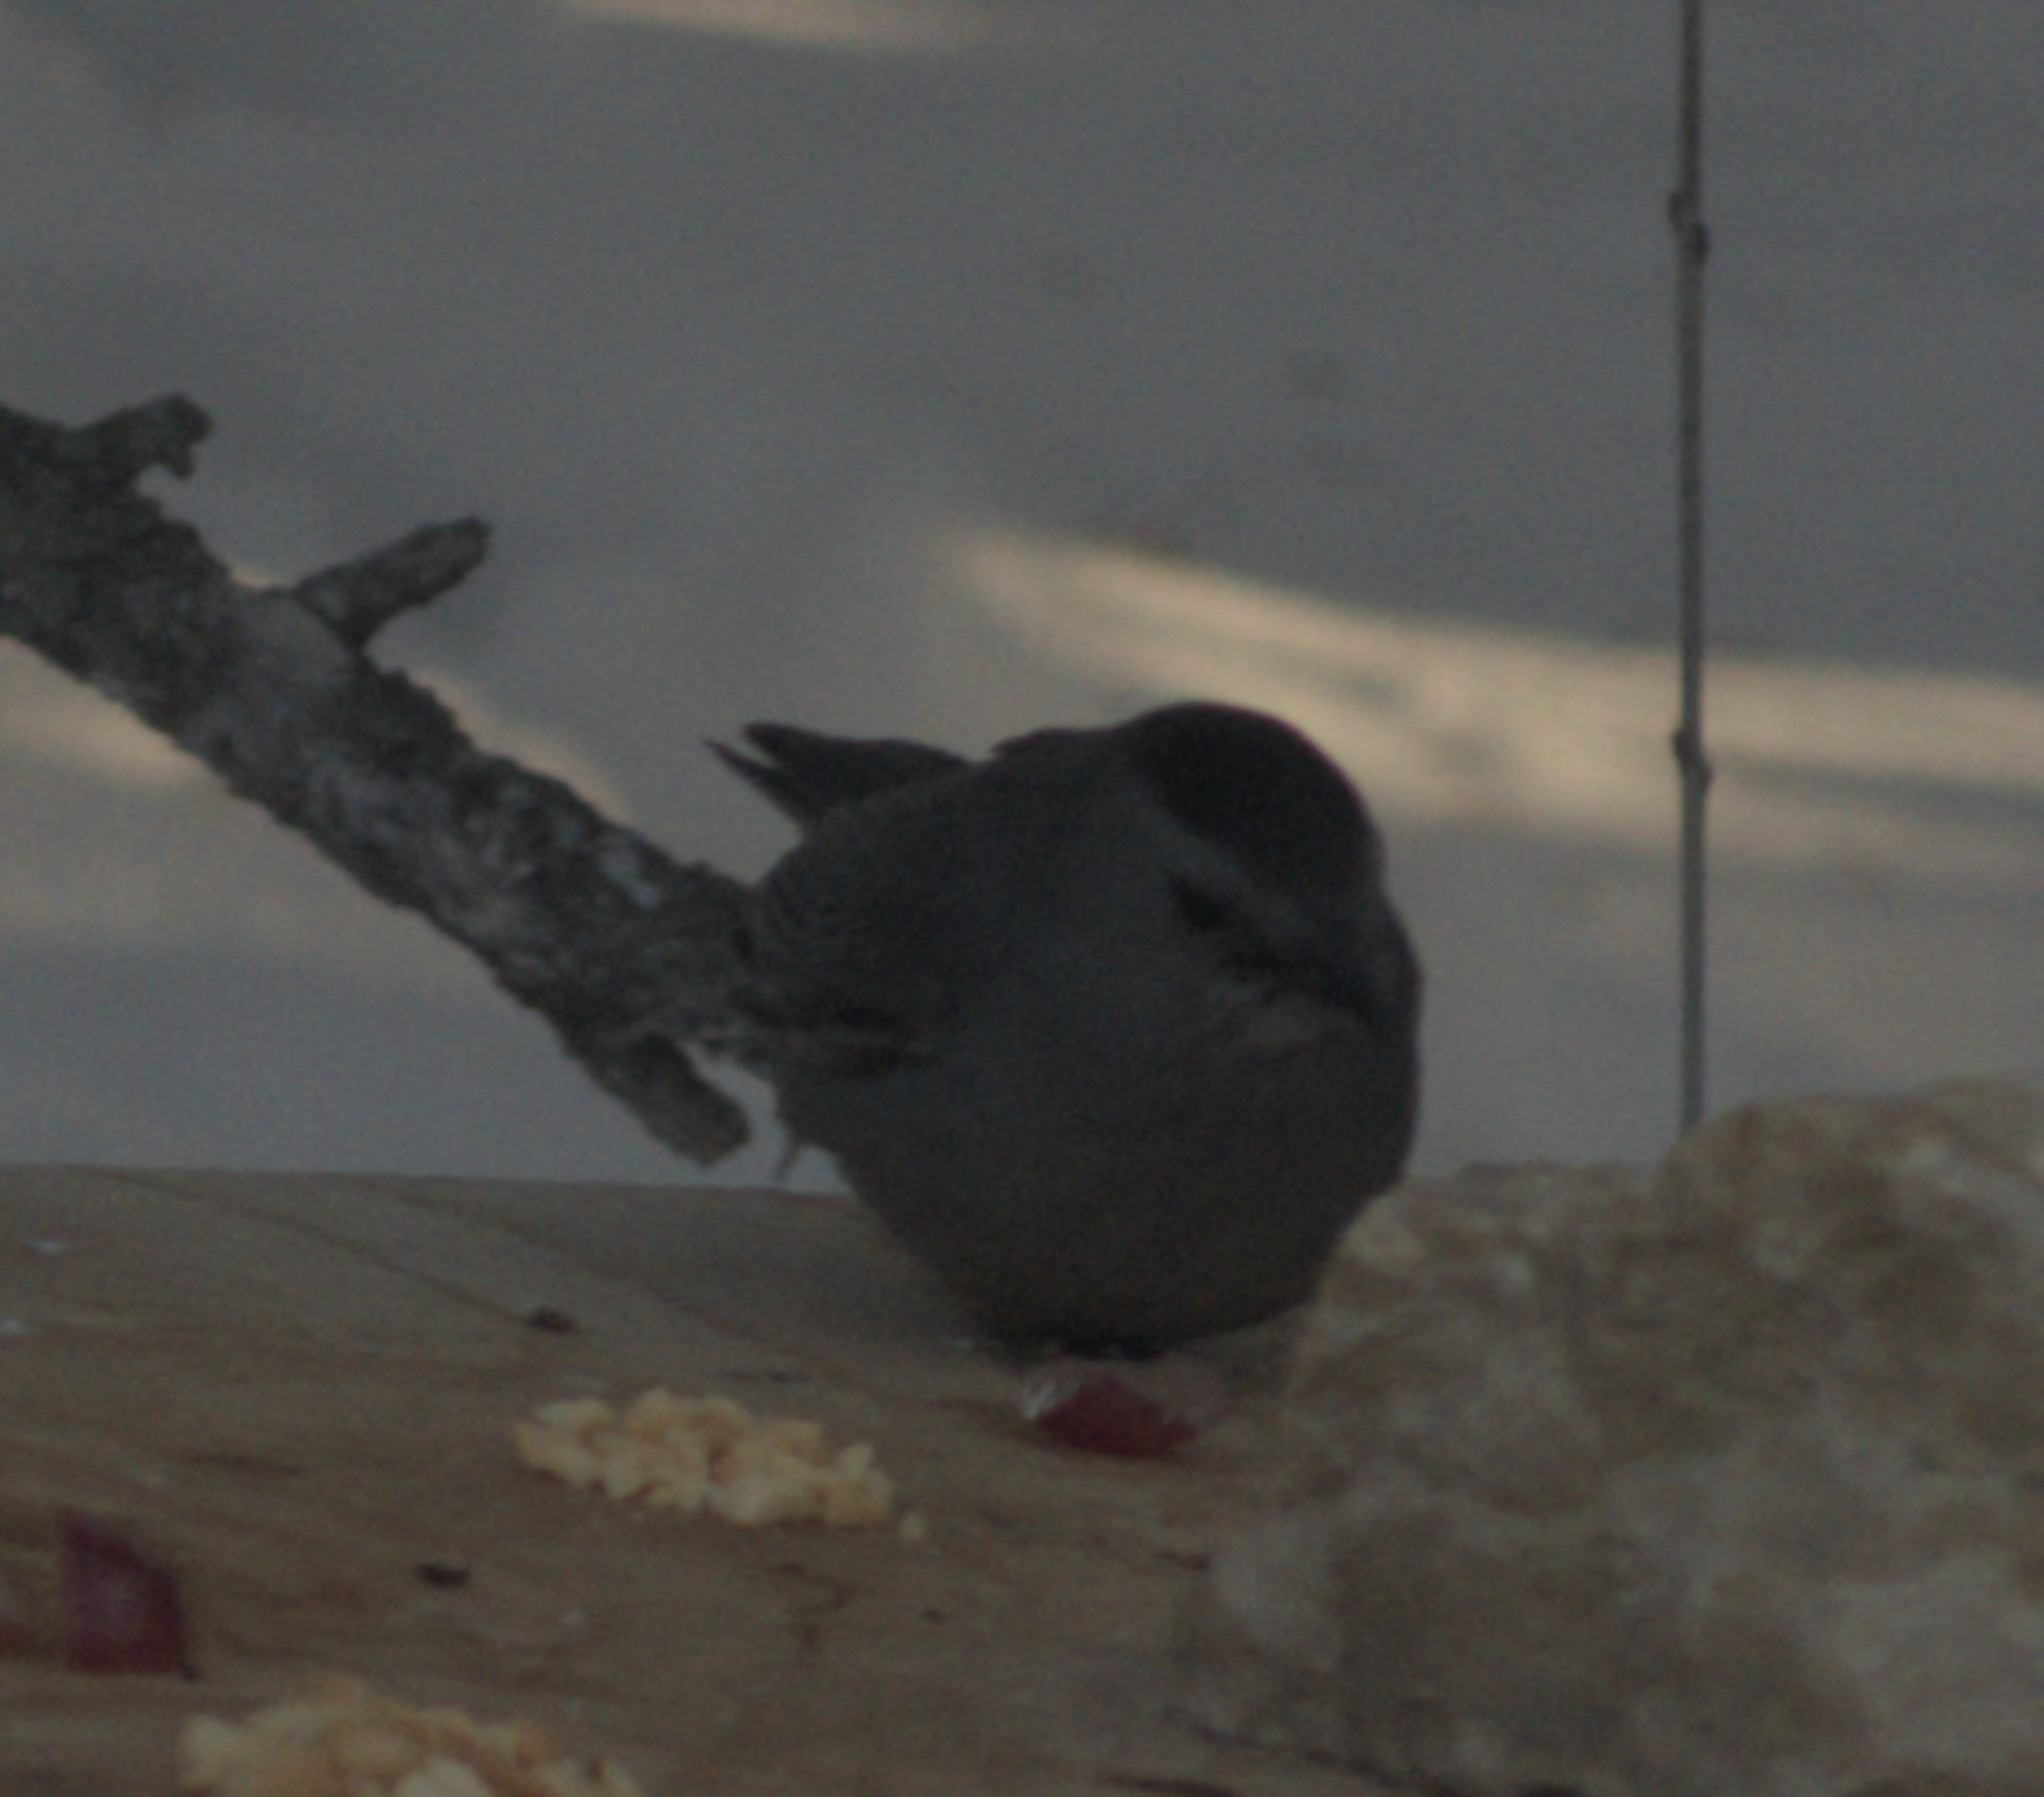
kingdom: Animalia
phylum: Chordata
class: Aves
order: Passeriformes
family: Mimidae
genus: Dumetella
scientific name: Dumetella carolinensis
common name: Gray catbird
